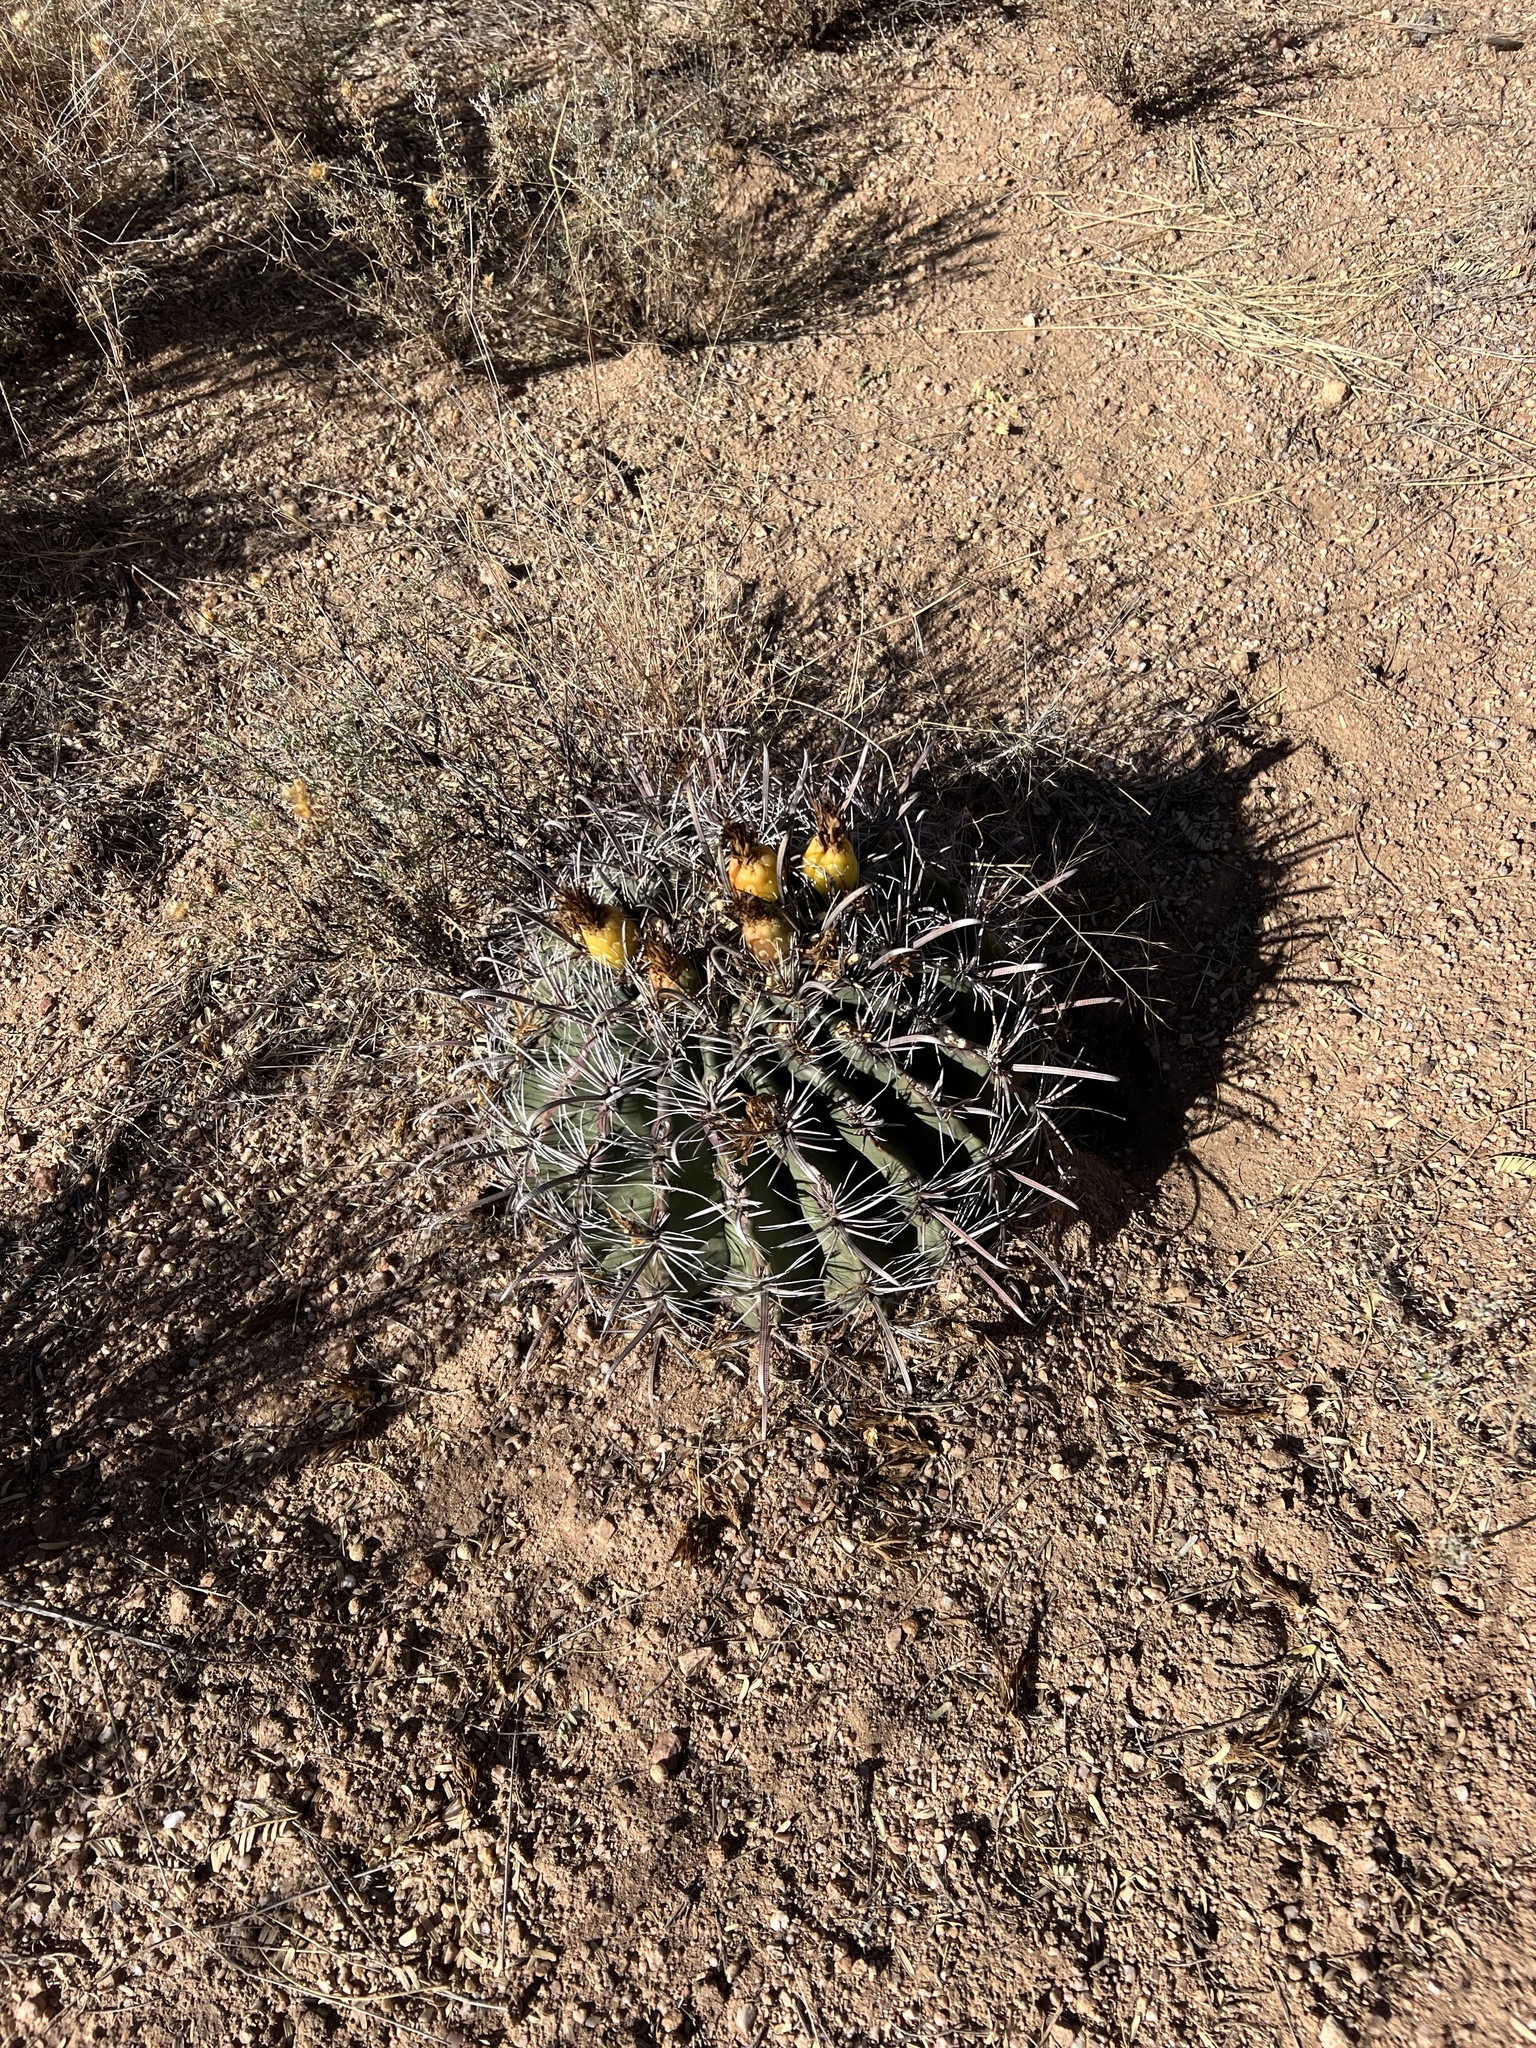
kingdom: Plantae
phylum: Tracheophyta
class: Magnoliopsida
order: Caryophyllales
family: Cactaceae
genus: Ferocactus
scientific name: Ferocactus wislizeni
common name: Candy barrel cactus
